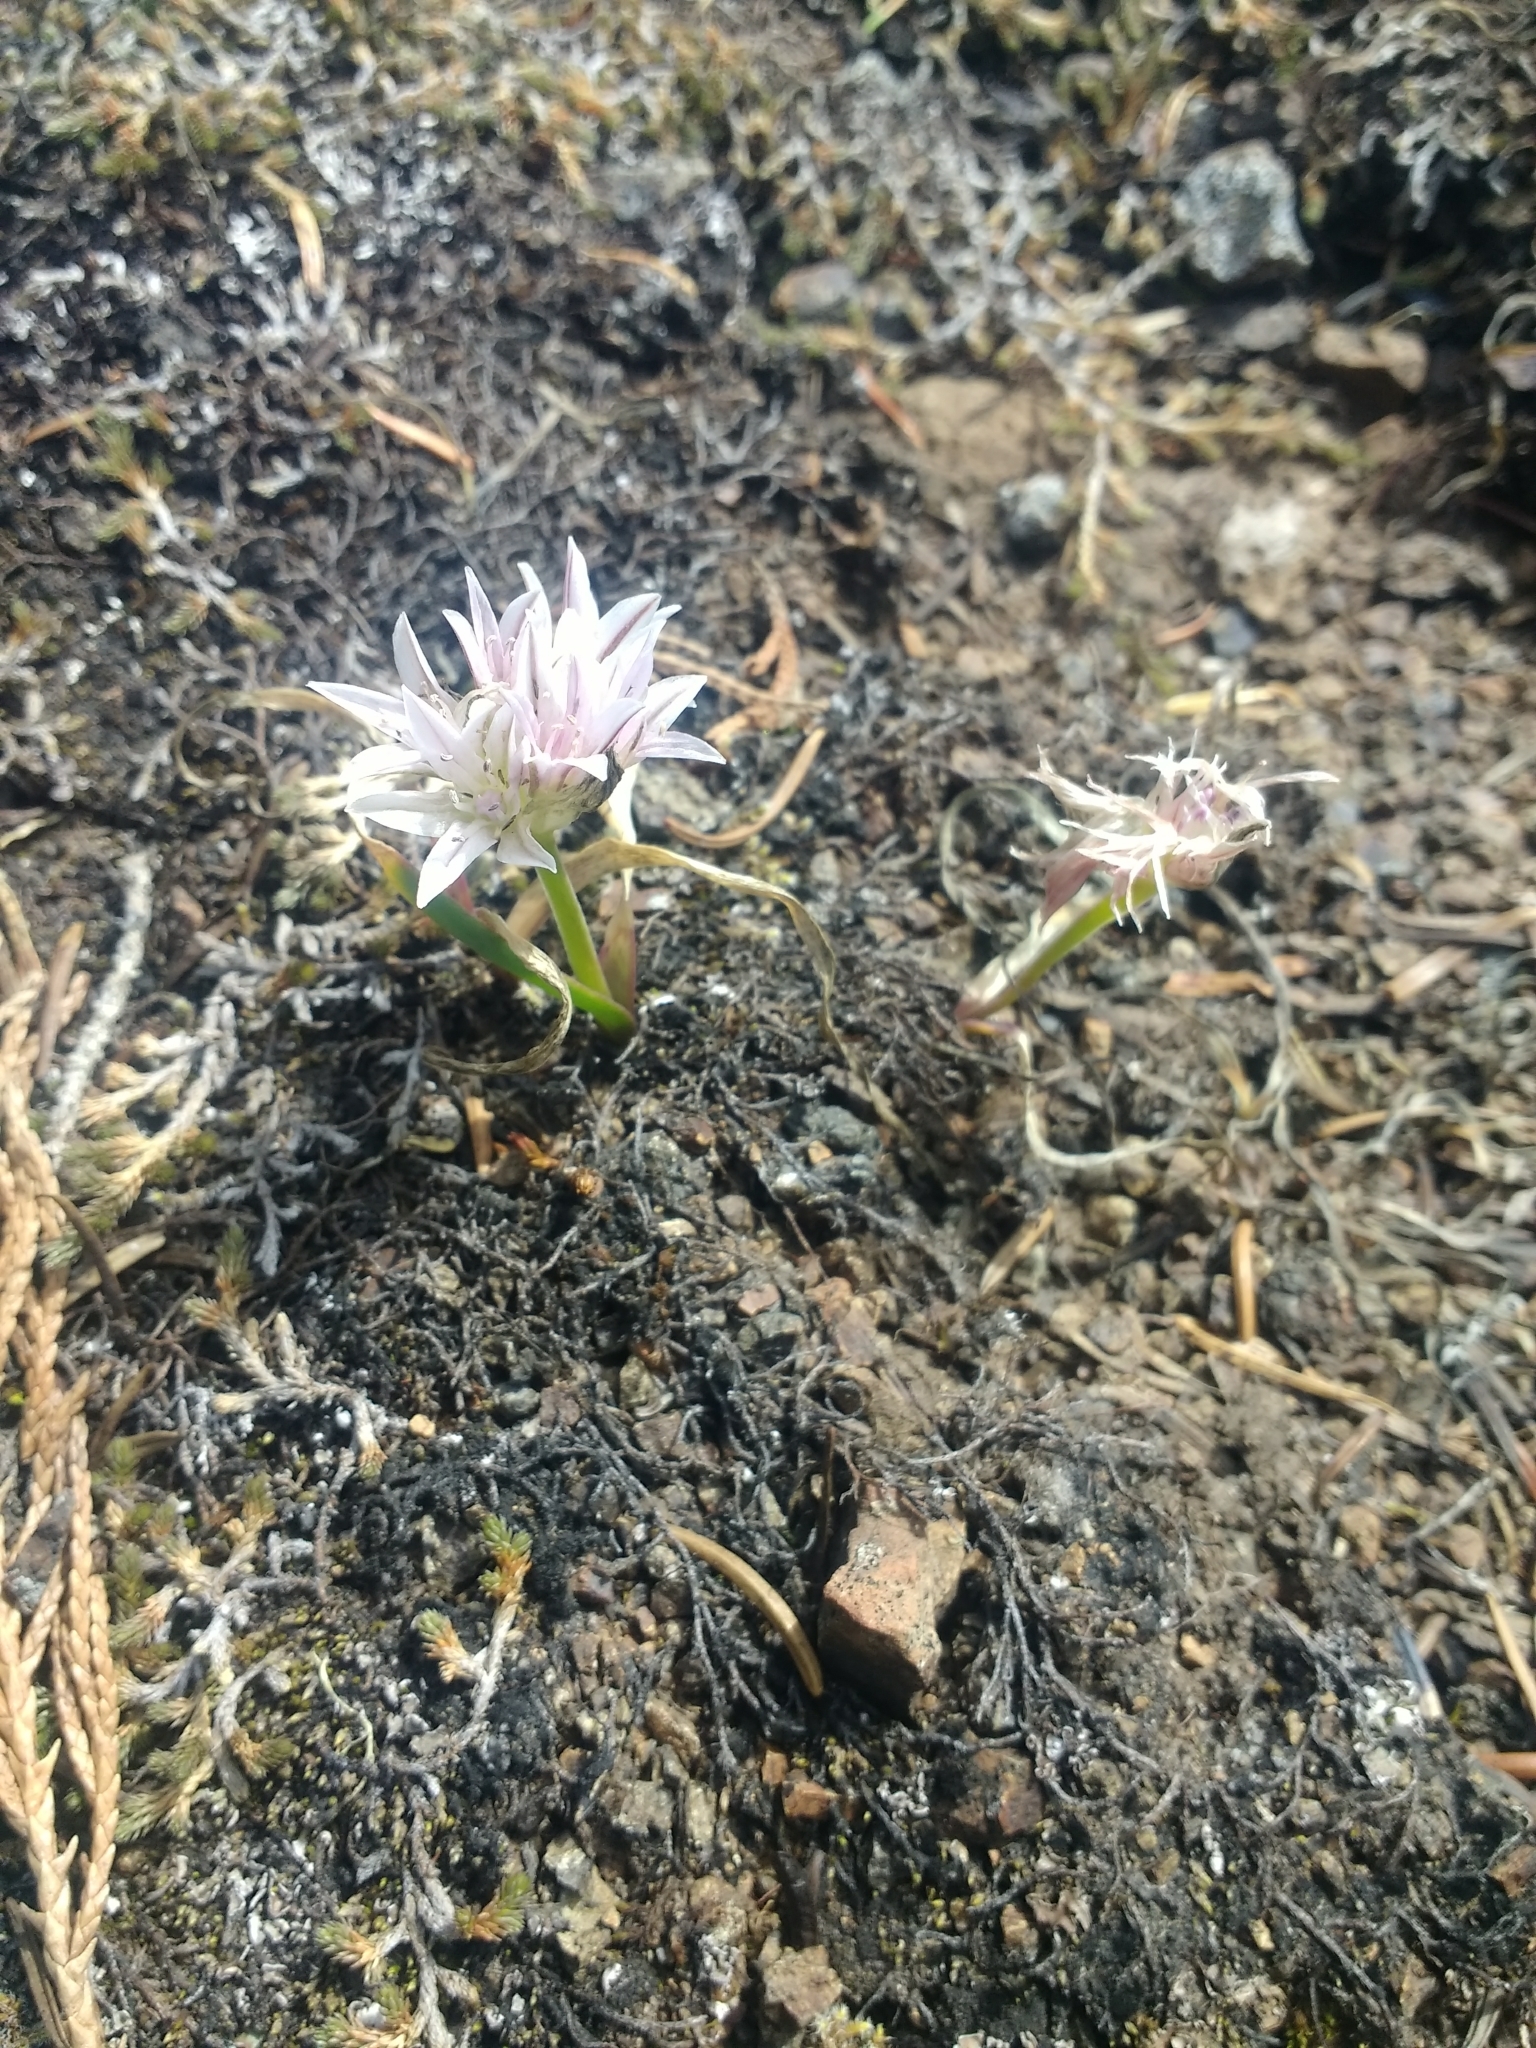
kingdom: Plantae
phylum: Tracheophyta
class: Liliopsida
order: Asparagales
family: Amaryllidaceae
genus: Allium
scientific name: Allium crenulatum
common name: Olympic onion
